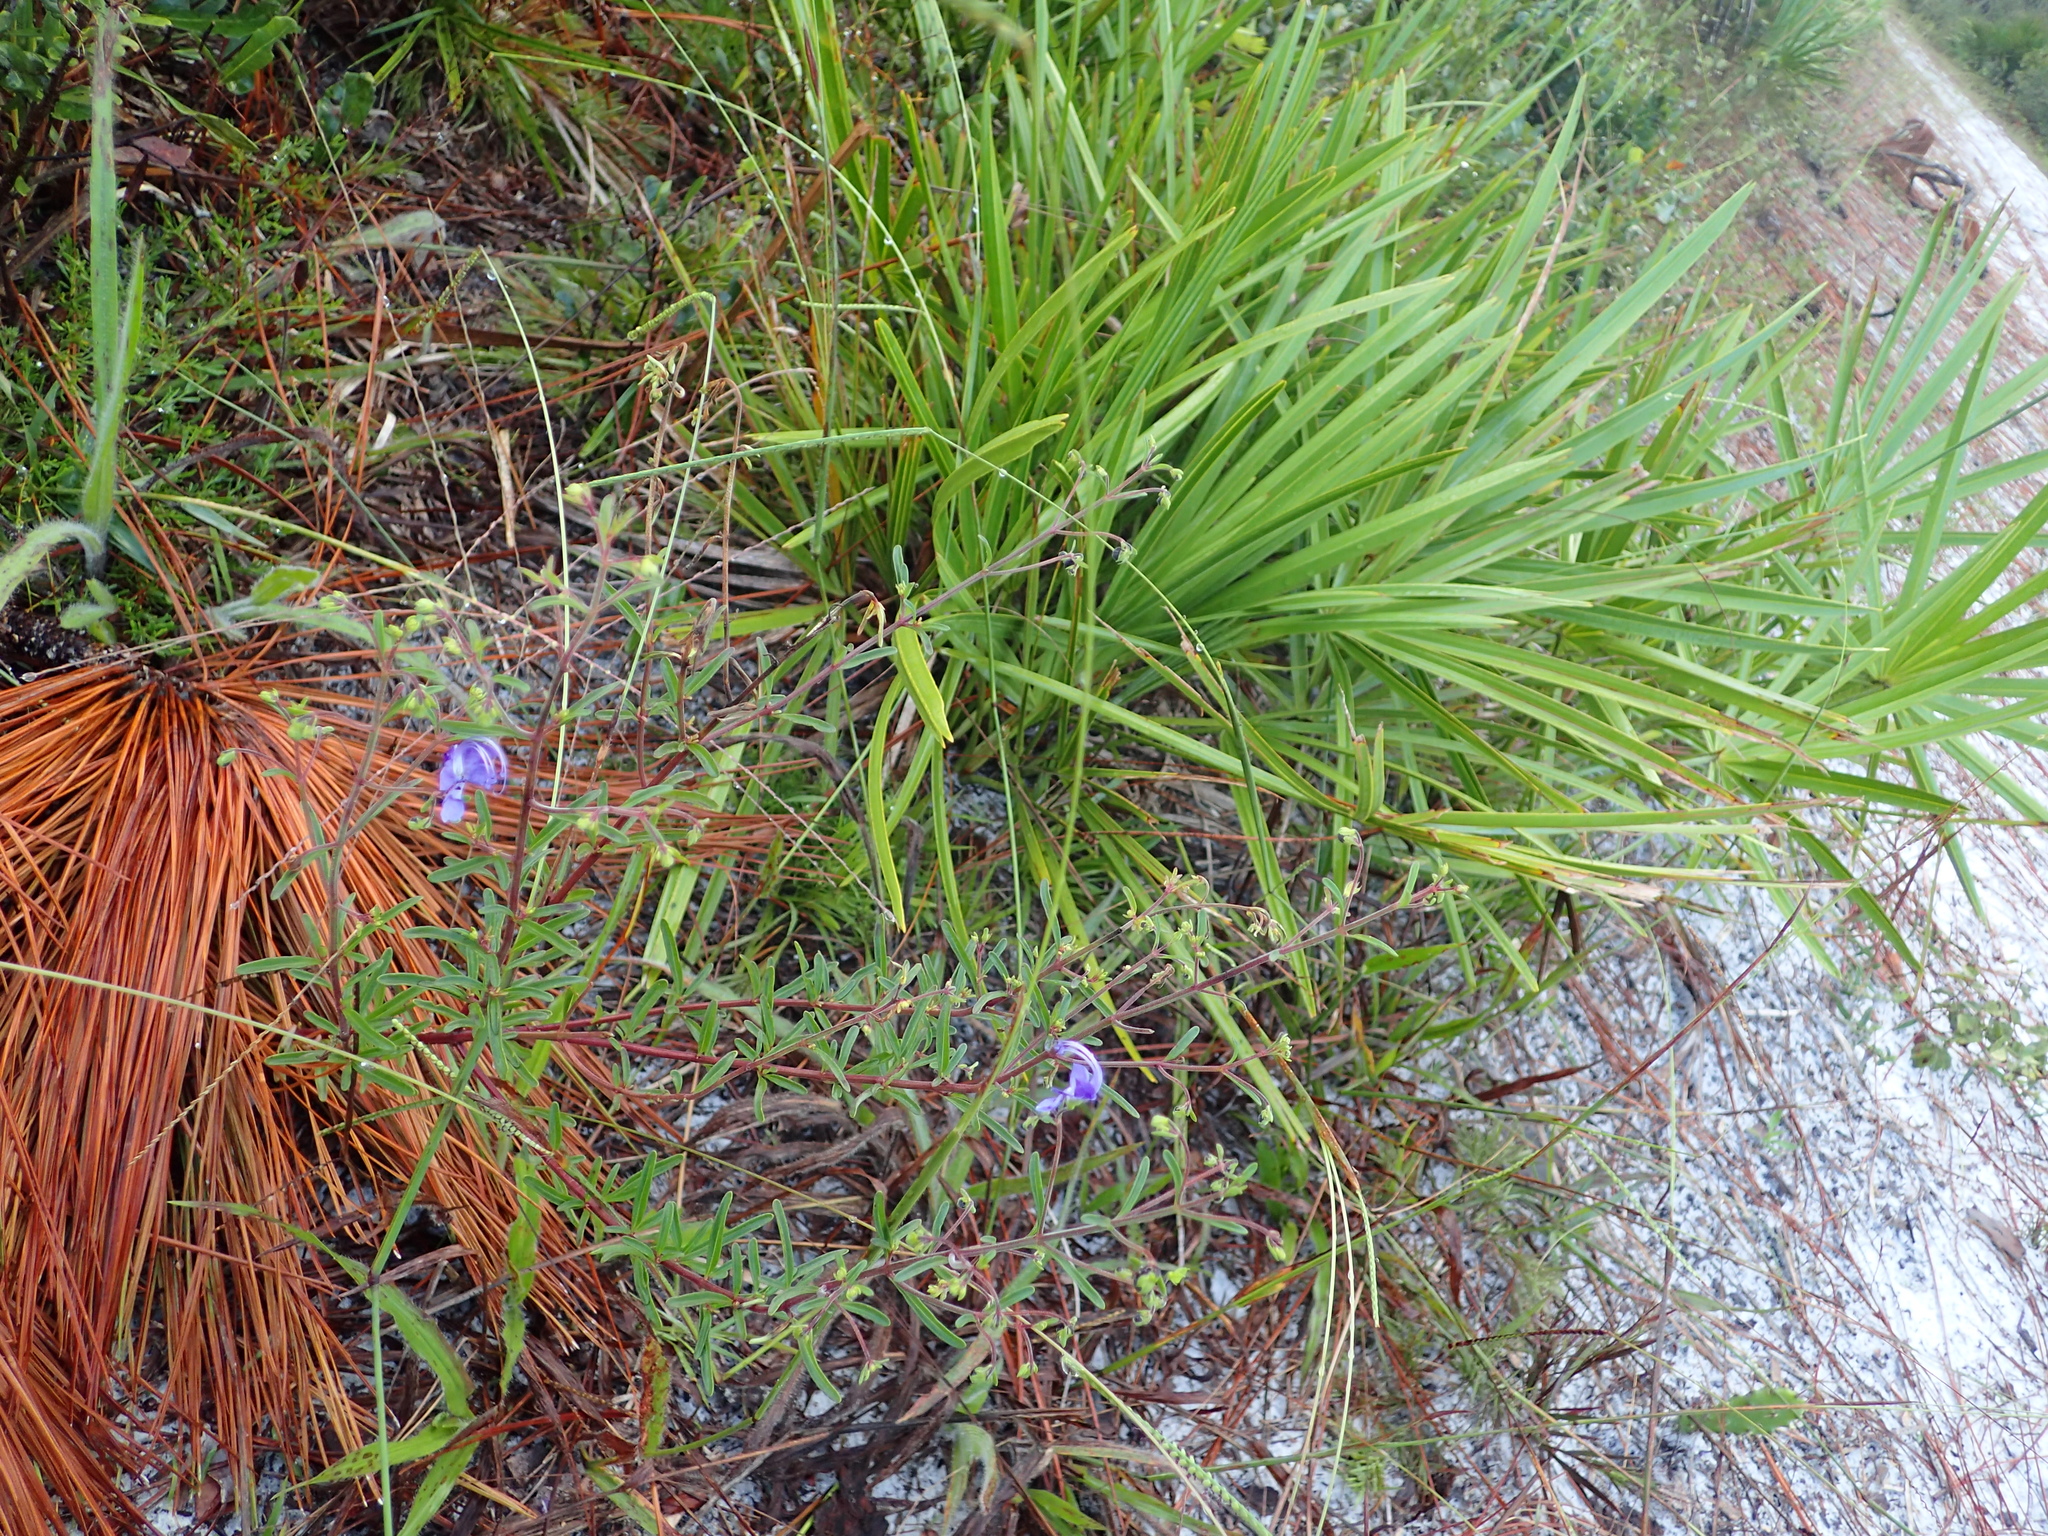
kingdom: Plantae
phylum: Tracheophyta
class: Magnoliopsida
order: Lamiales
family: Lamiaceae
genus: Trichostema
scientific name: Trichostema gracile
